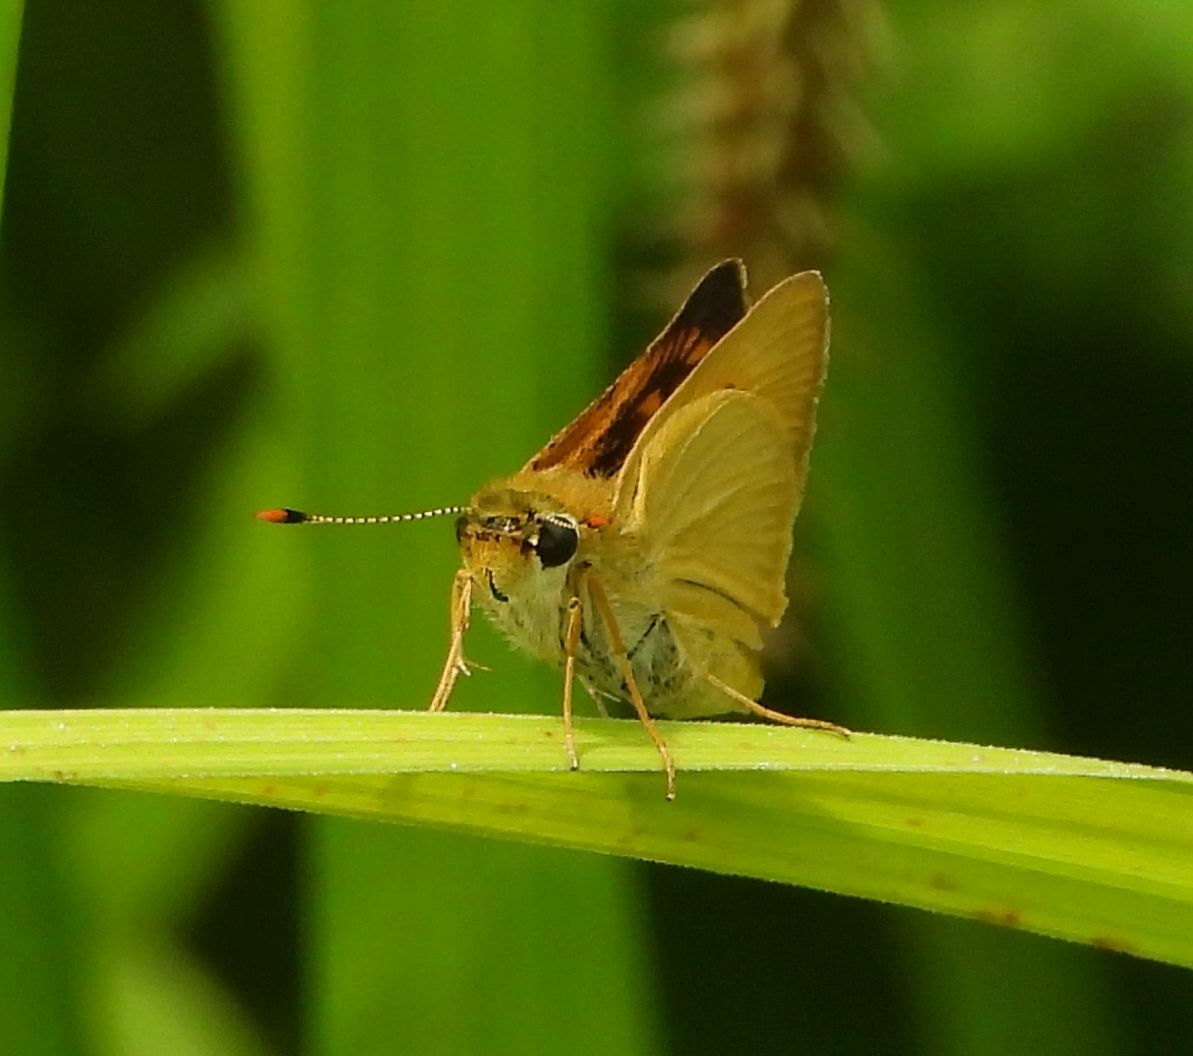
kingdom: Animalia
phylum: Arthropoda
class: Insecta
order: Lepidoptera
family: Hesperiidae
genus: Atrytone
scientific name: Atrytone delaware
